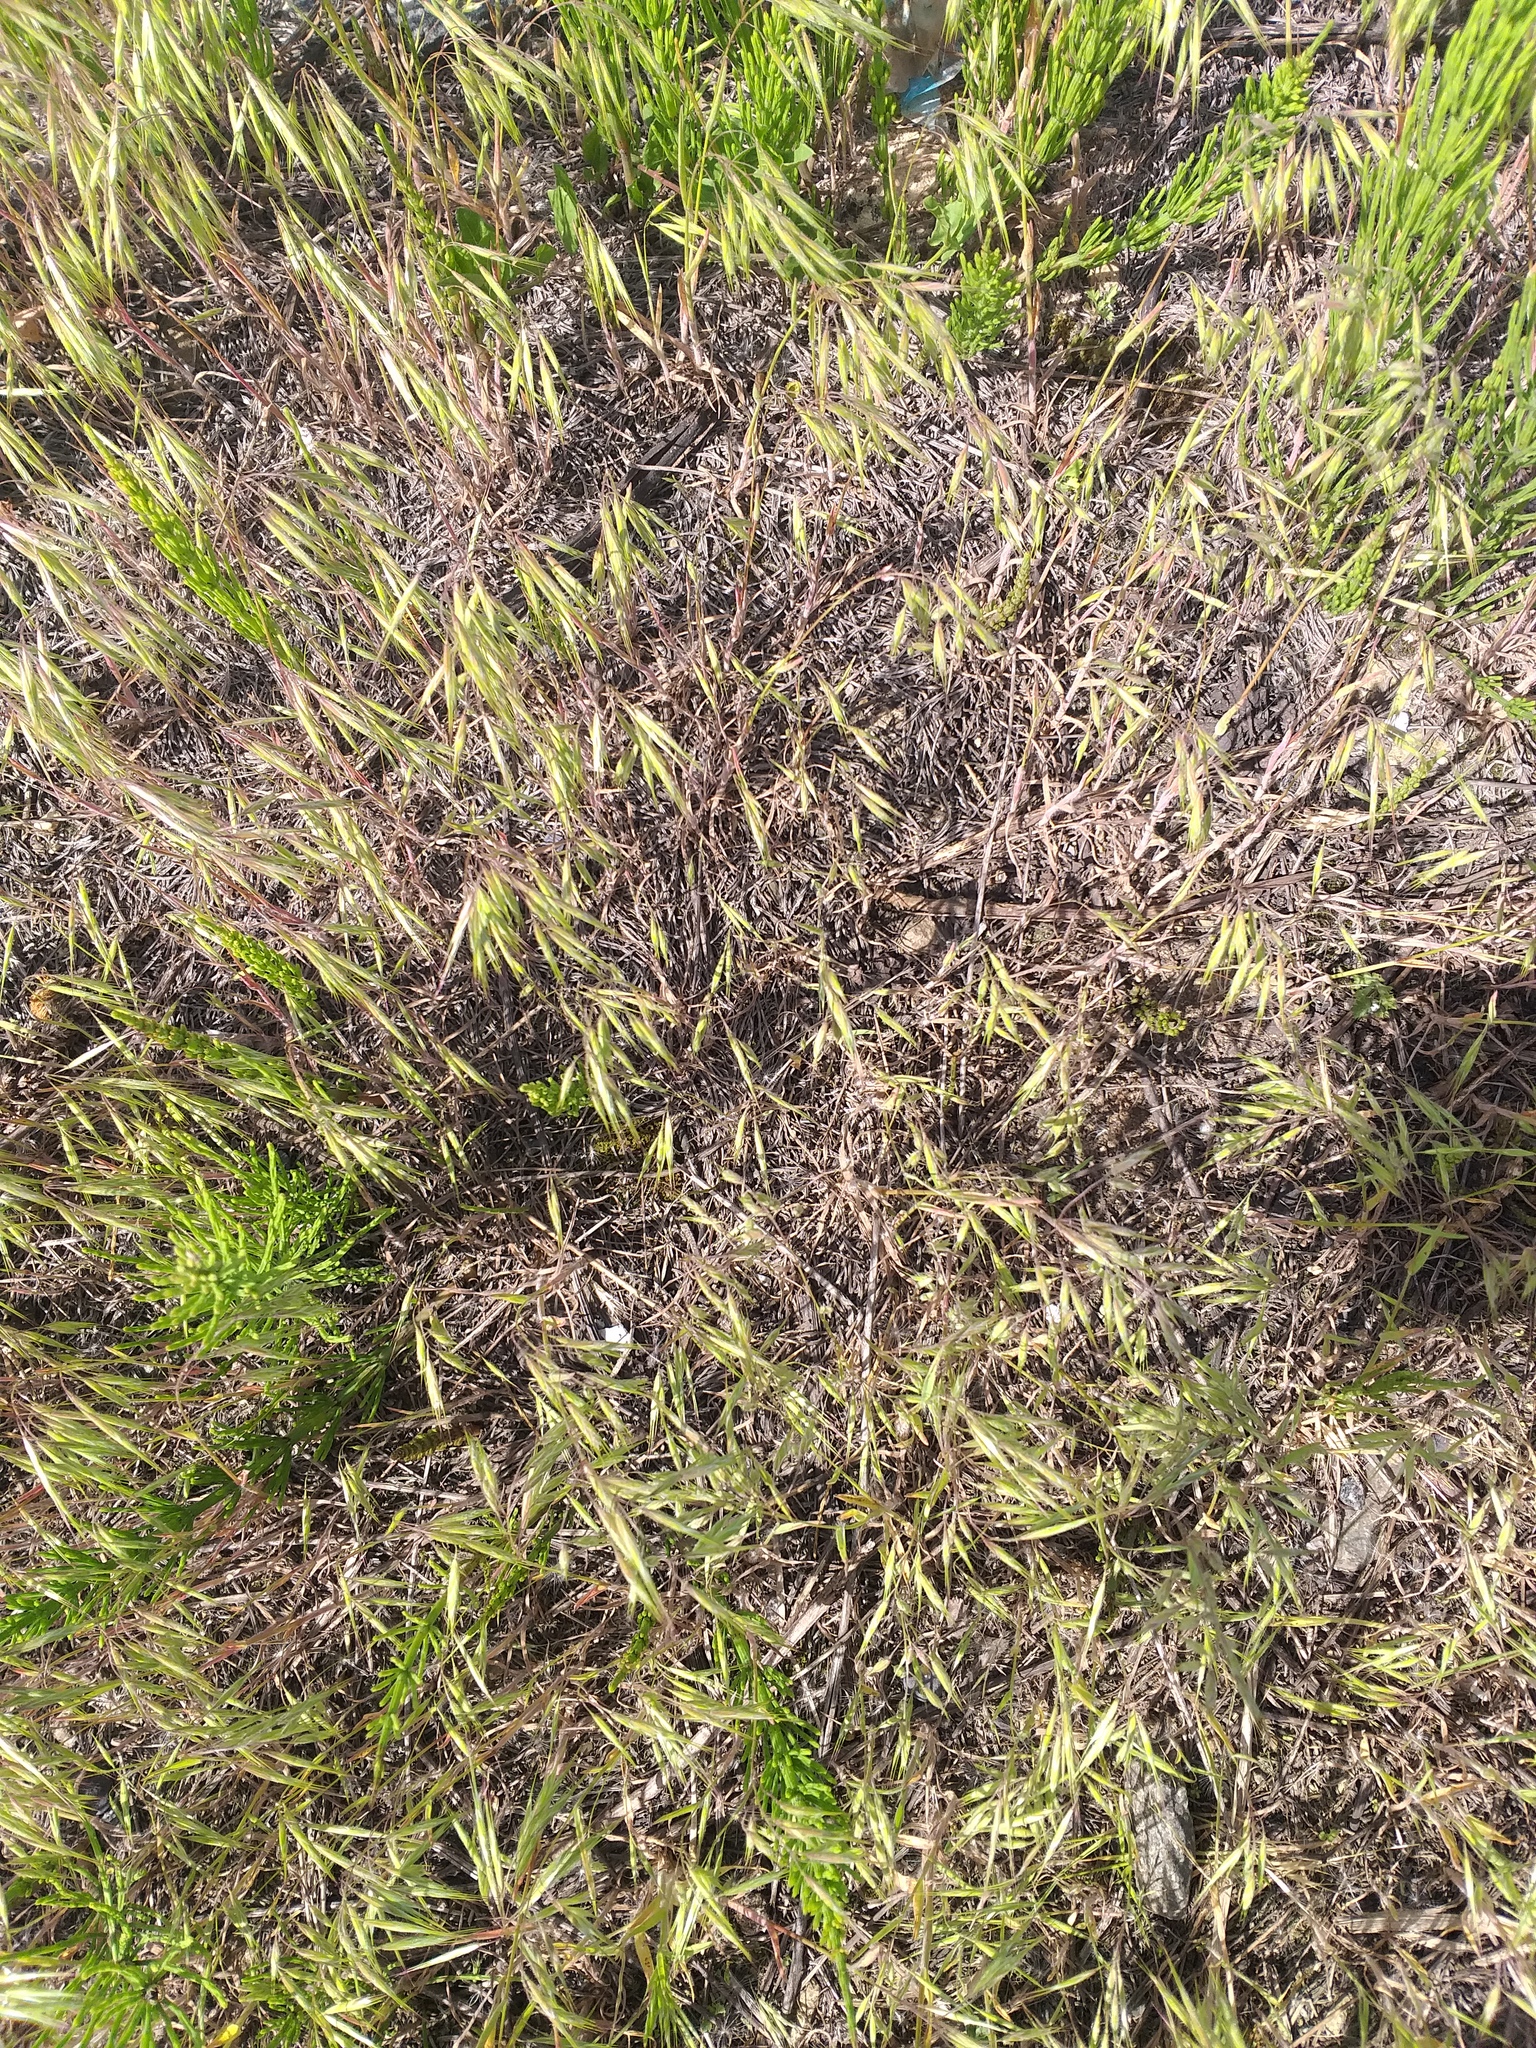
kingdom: Plantae
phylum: Tracheophyta
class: Liliopsida
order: Poales
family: Poaceae
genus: Bromus
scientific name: Bromus tectorum
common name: Cheatgrass
